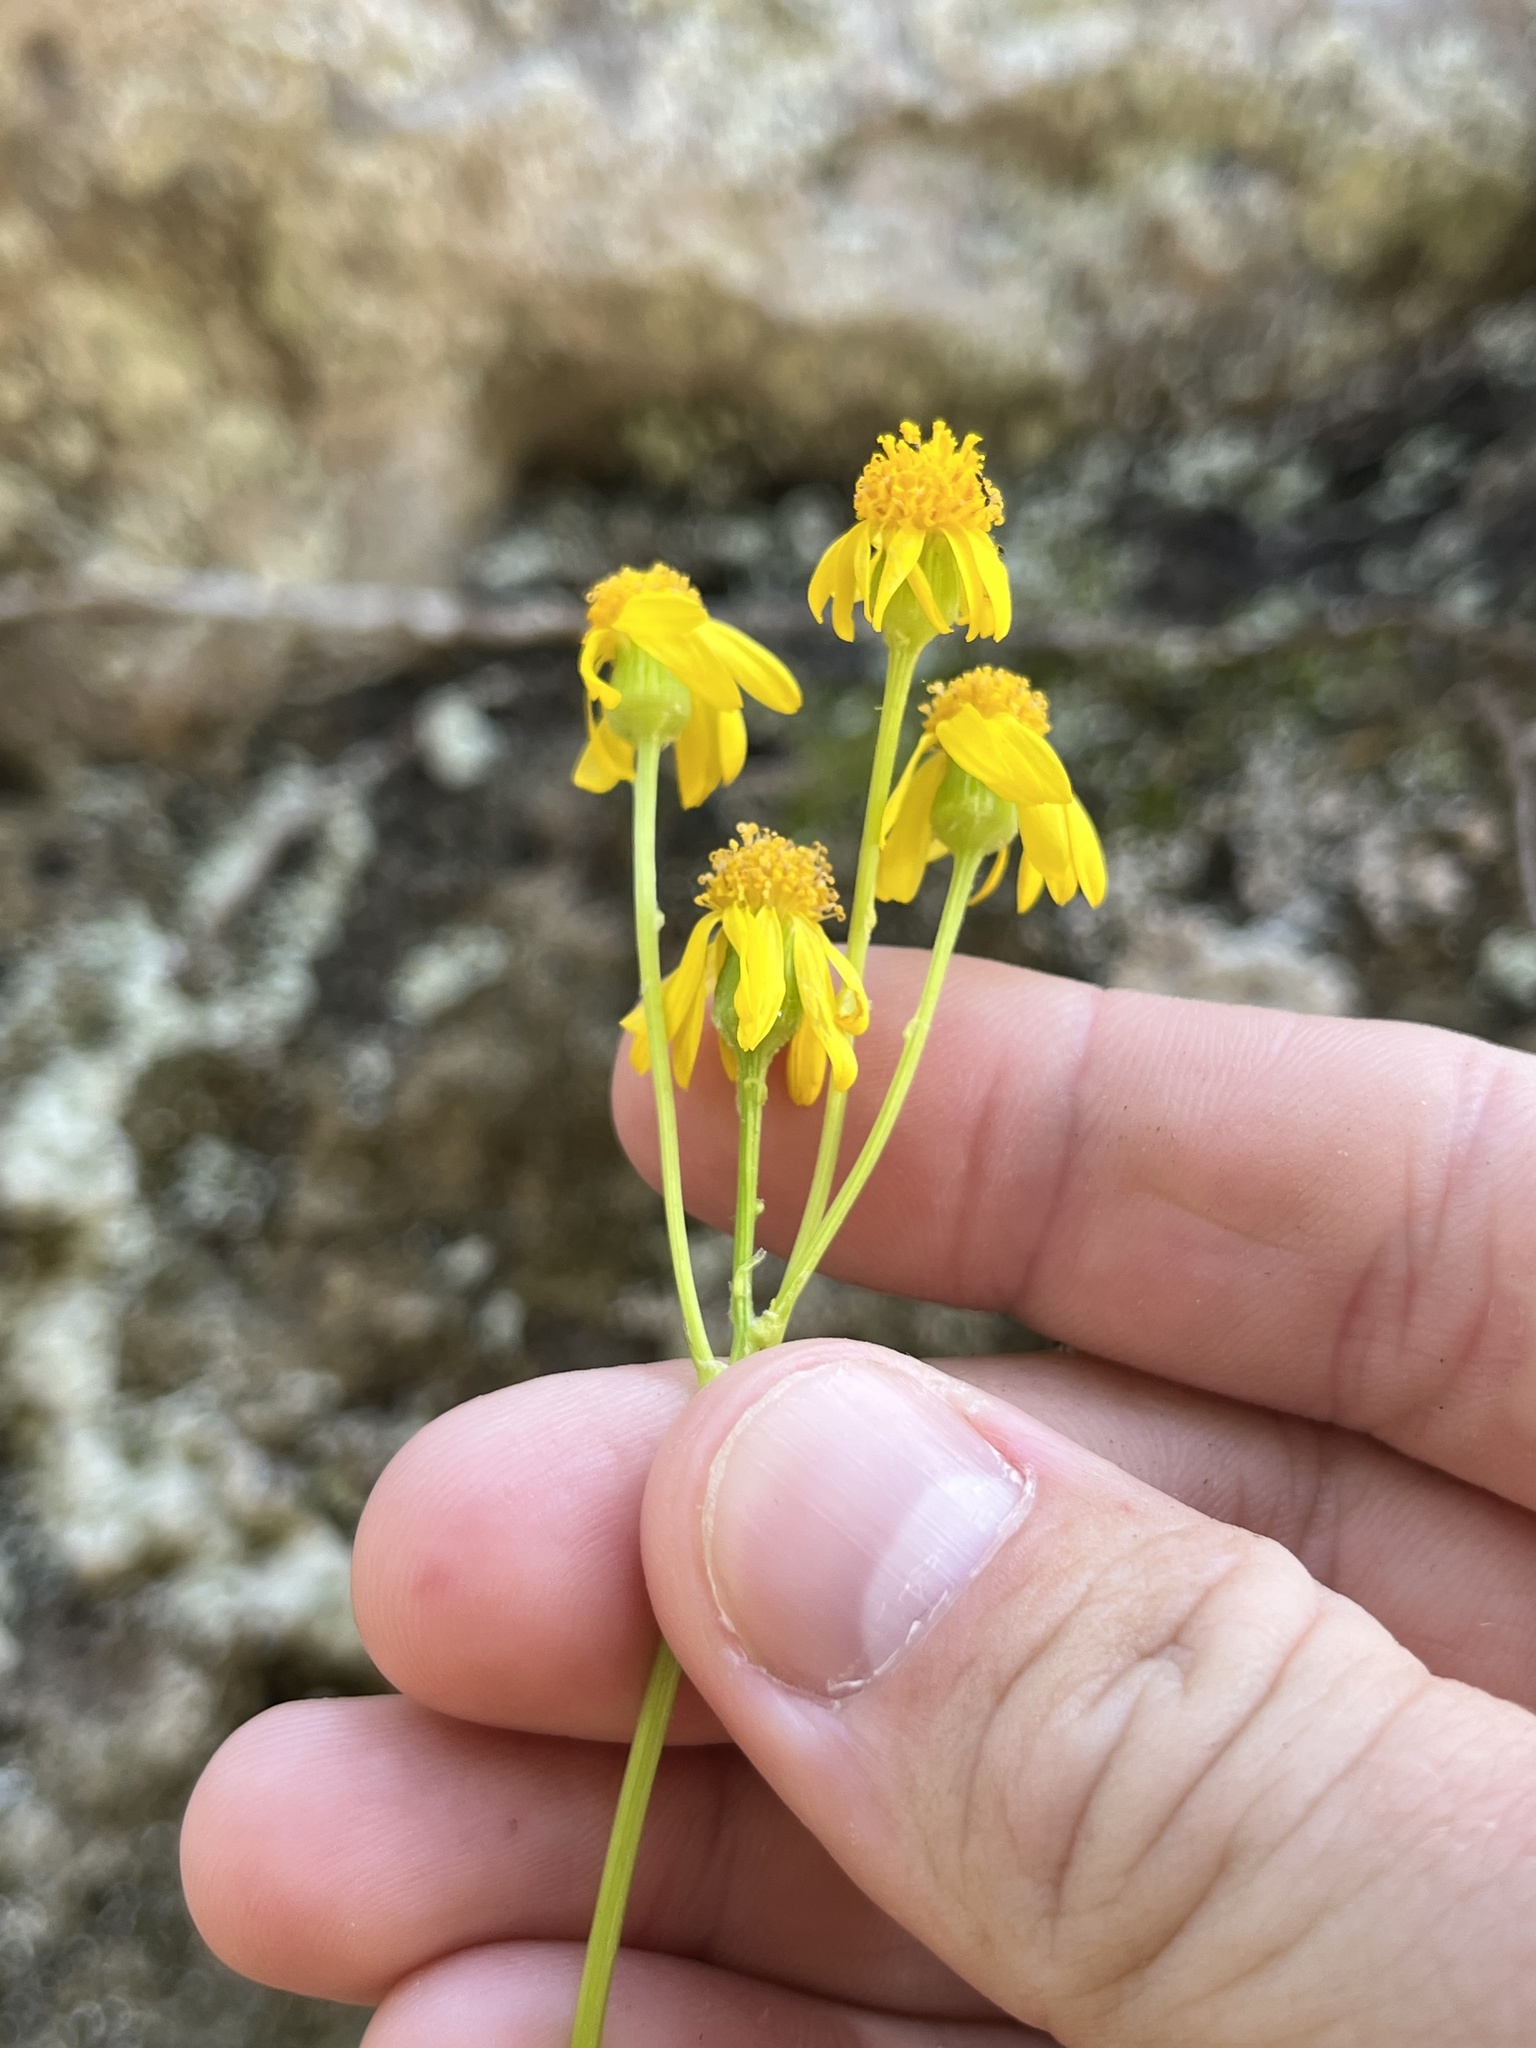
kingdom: Plantae
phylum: Tracheophyta
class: Magnoliopsida
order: Asterales
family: Asteraceae
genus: Packera
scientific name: Packera obovata
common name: Round-leaf ragwort
